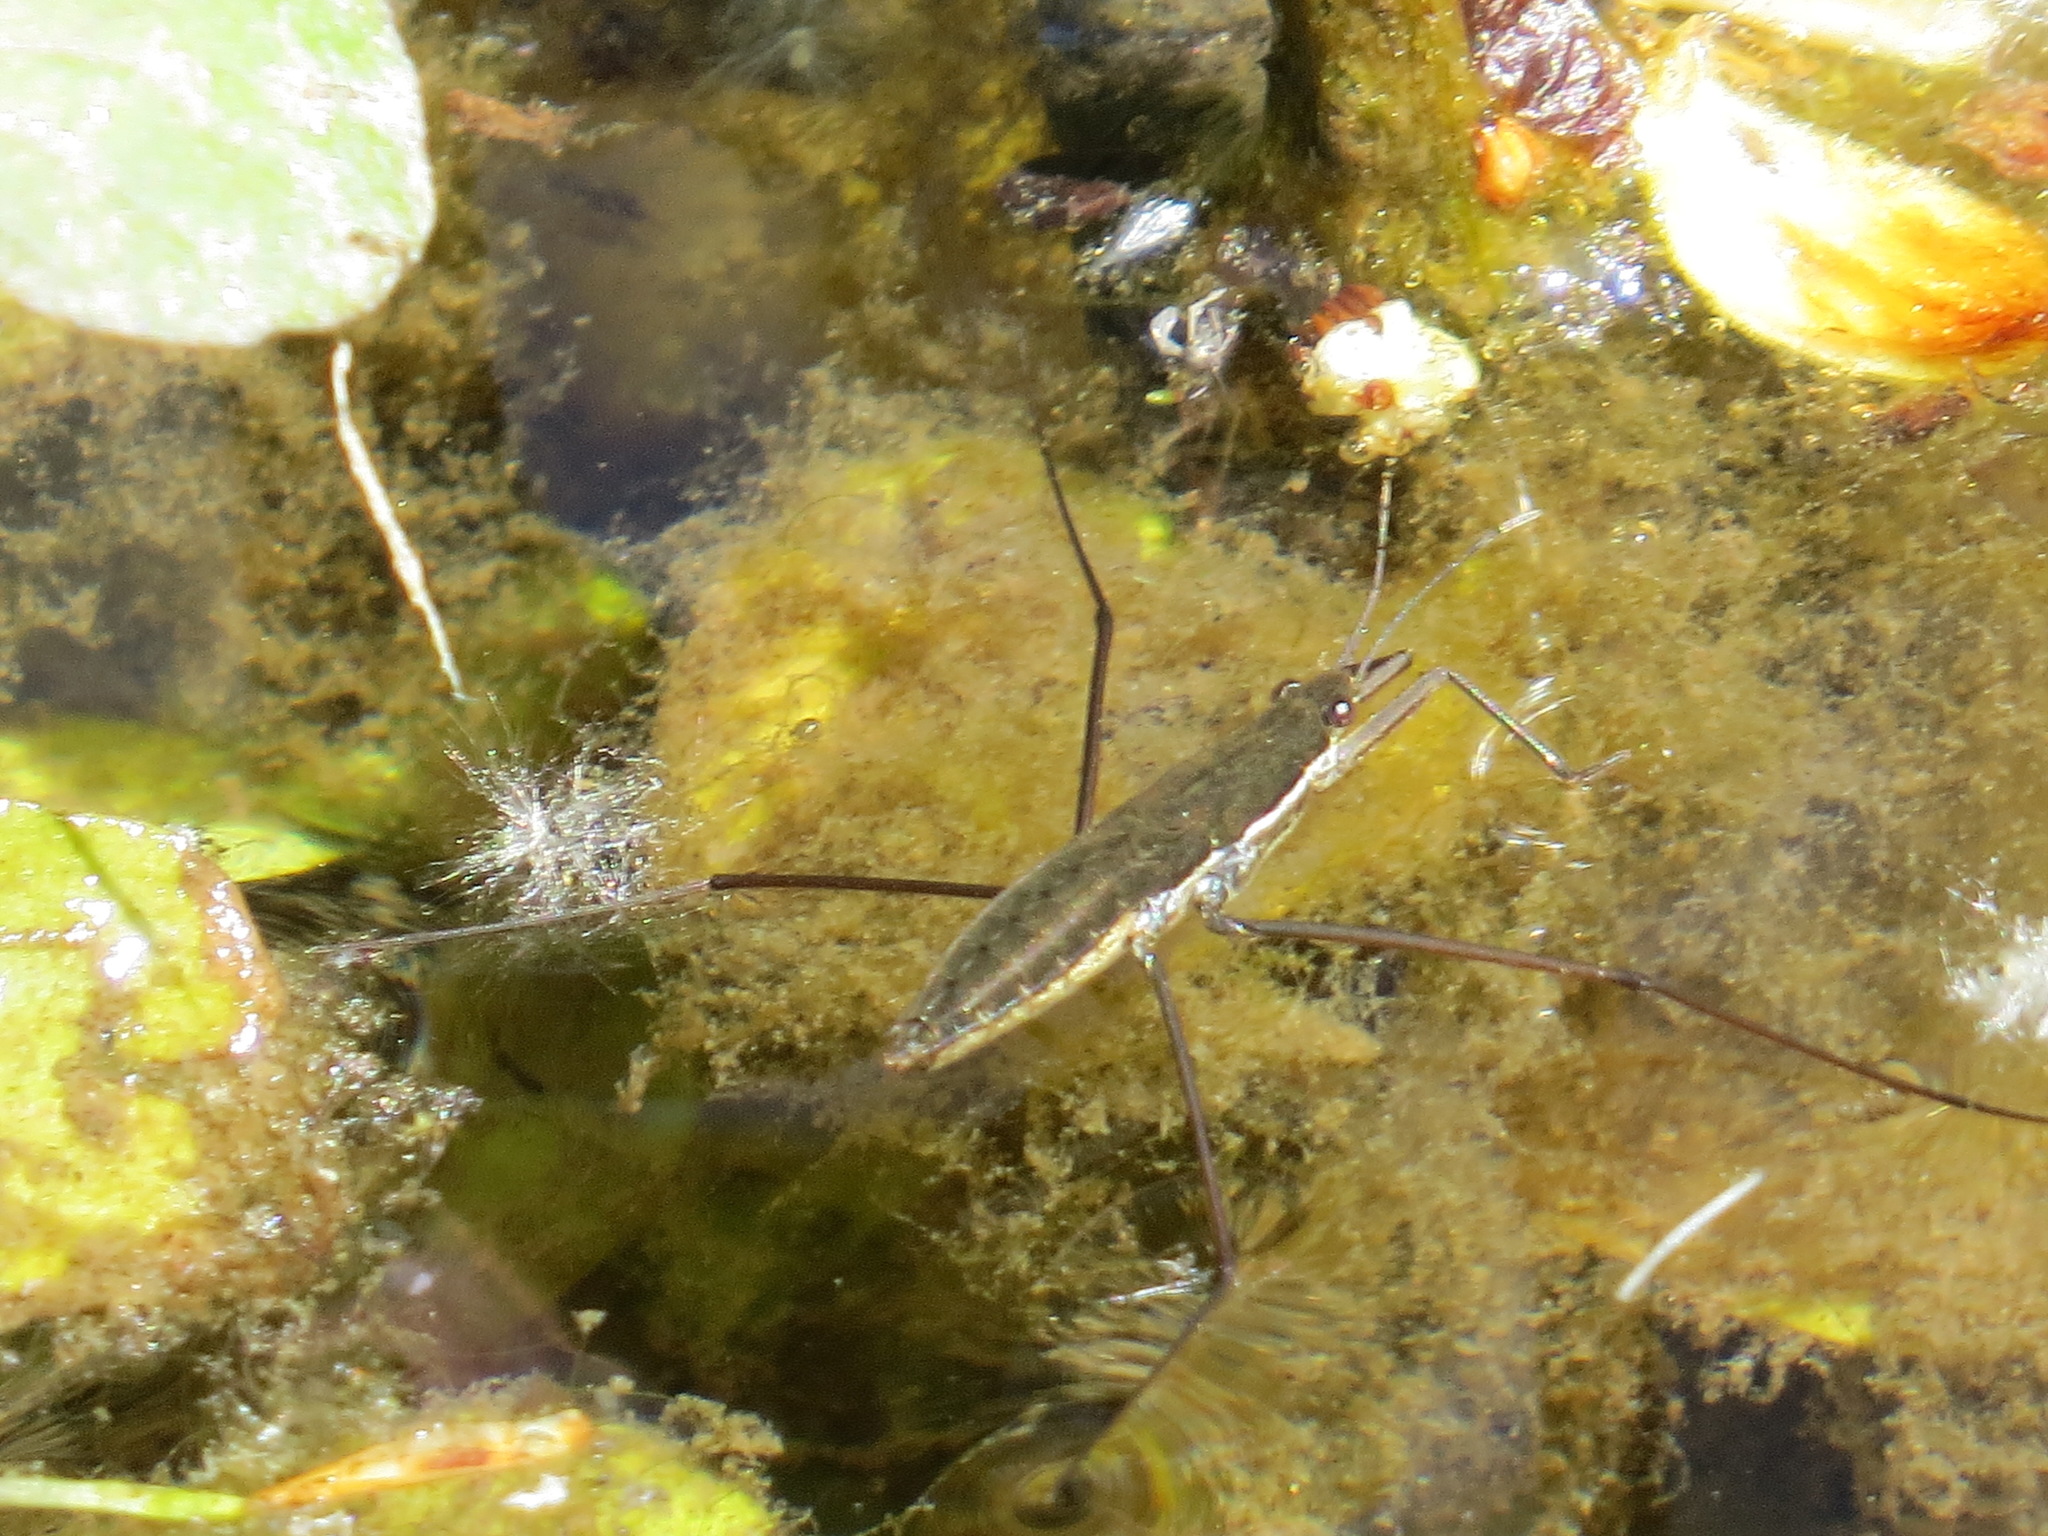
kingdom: Animalia
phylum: Arthropoda
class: Insecta
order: Hemiptera
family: Gerridae
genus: Aquarius
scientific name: Aquarius remigis
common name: Common water strider
